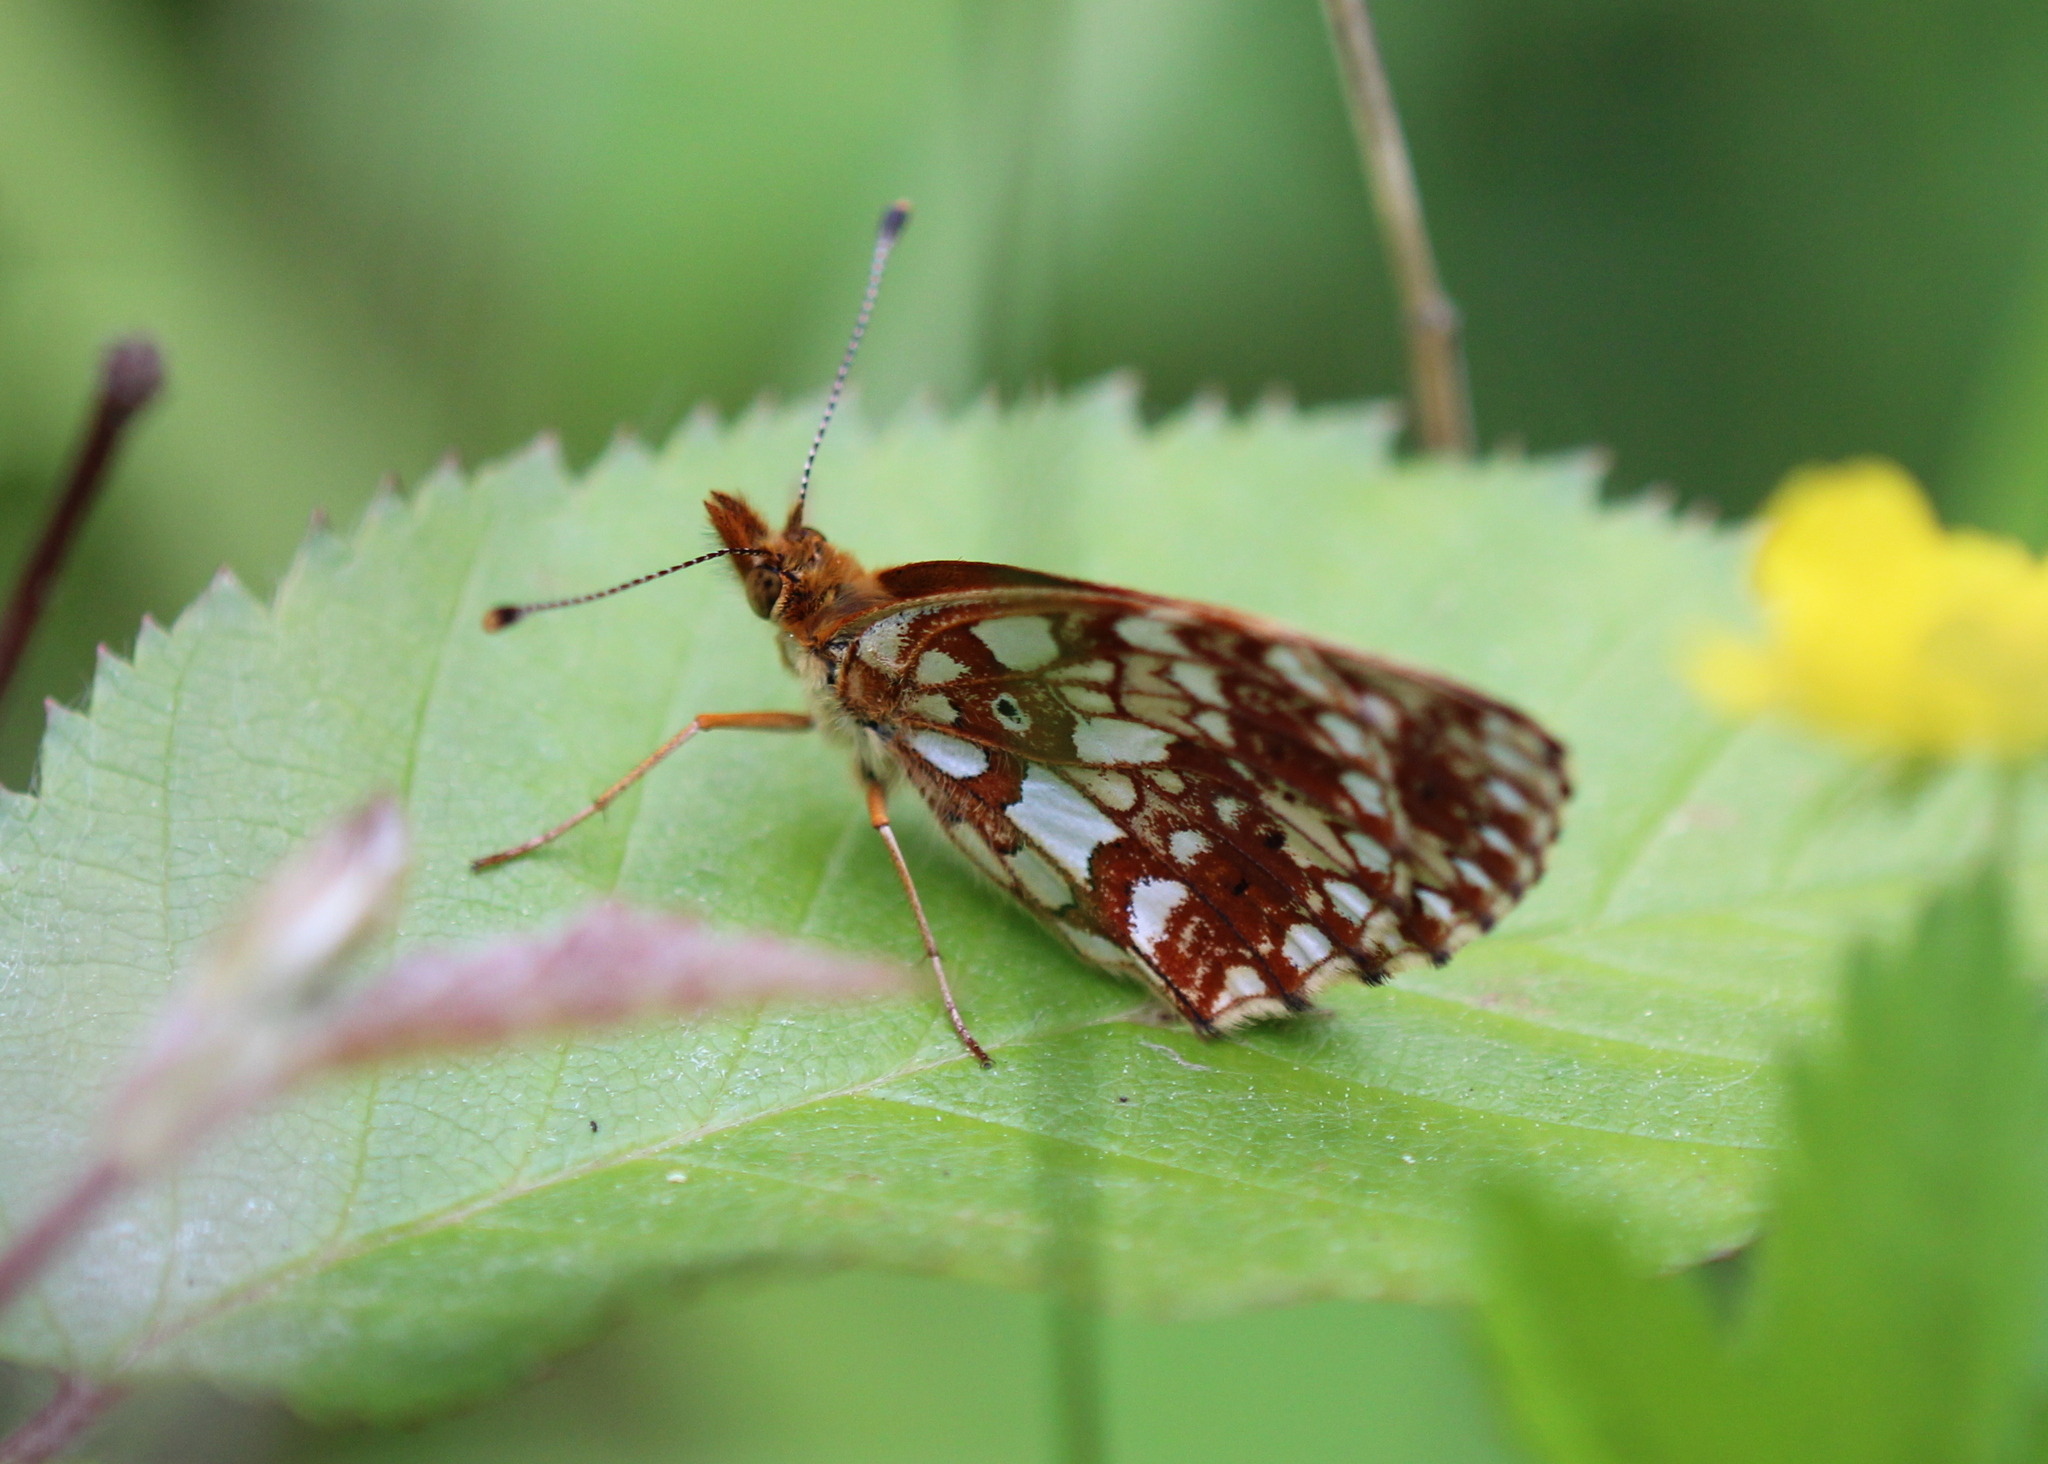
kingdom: Animalia
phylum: Arthropoda
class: Insecta
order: Lepidoptera
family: Nymphalidae
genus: Boloria
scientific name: Boloria
